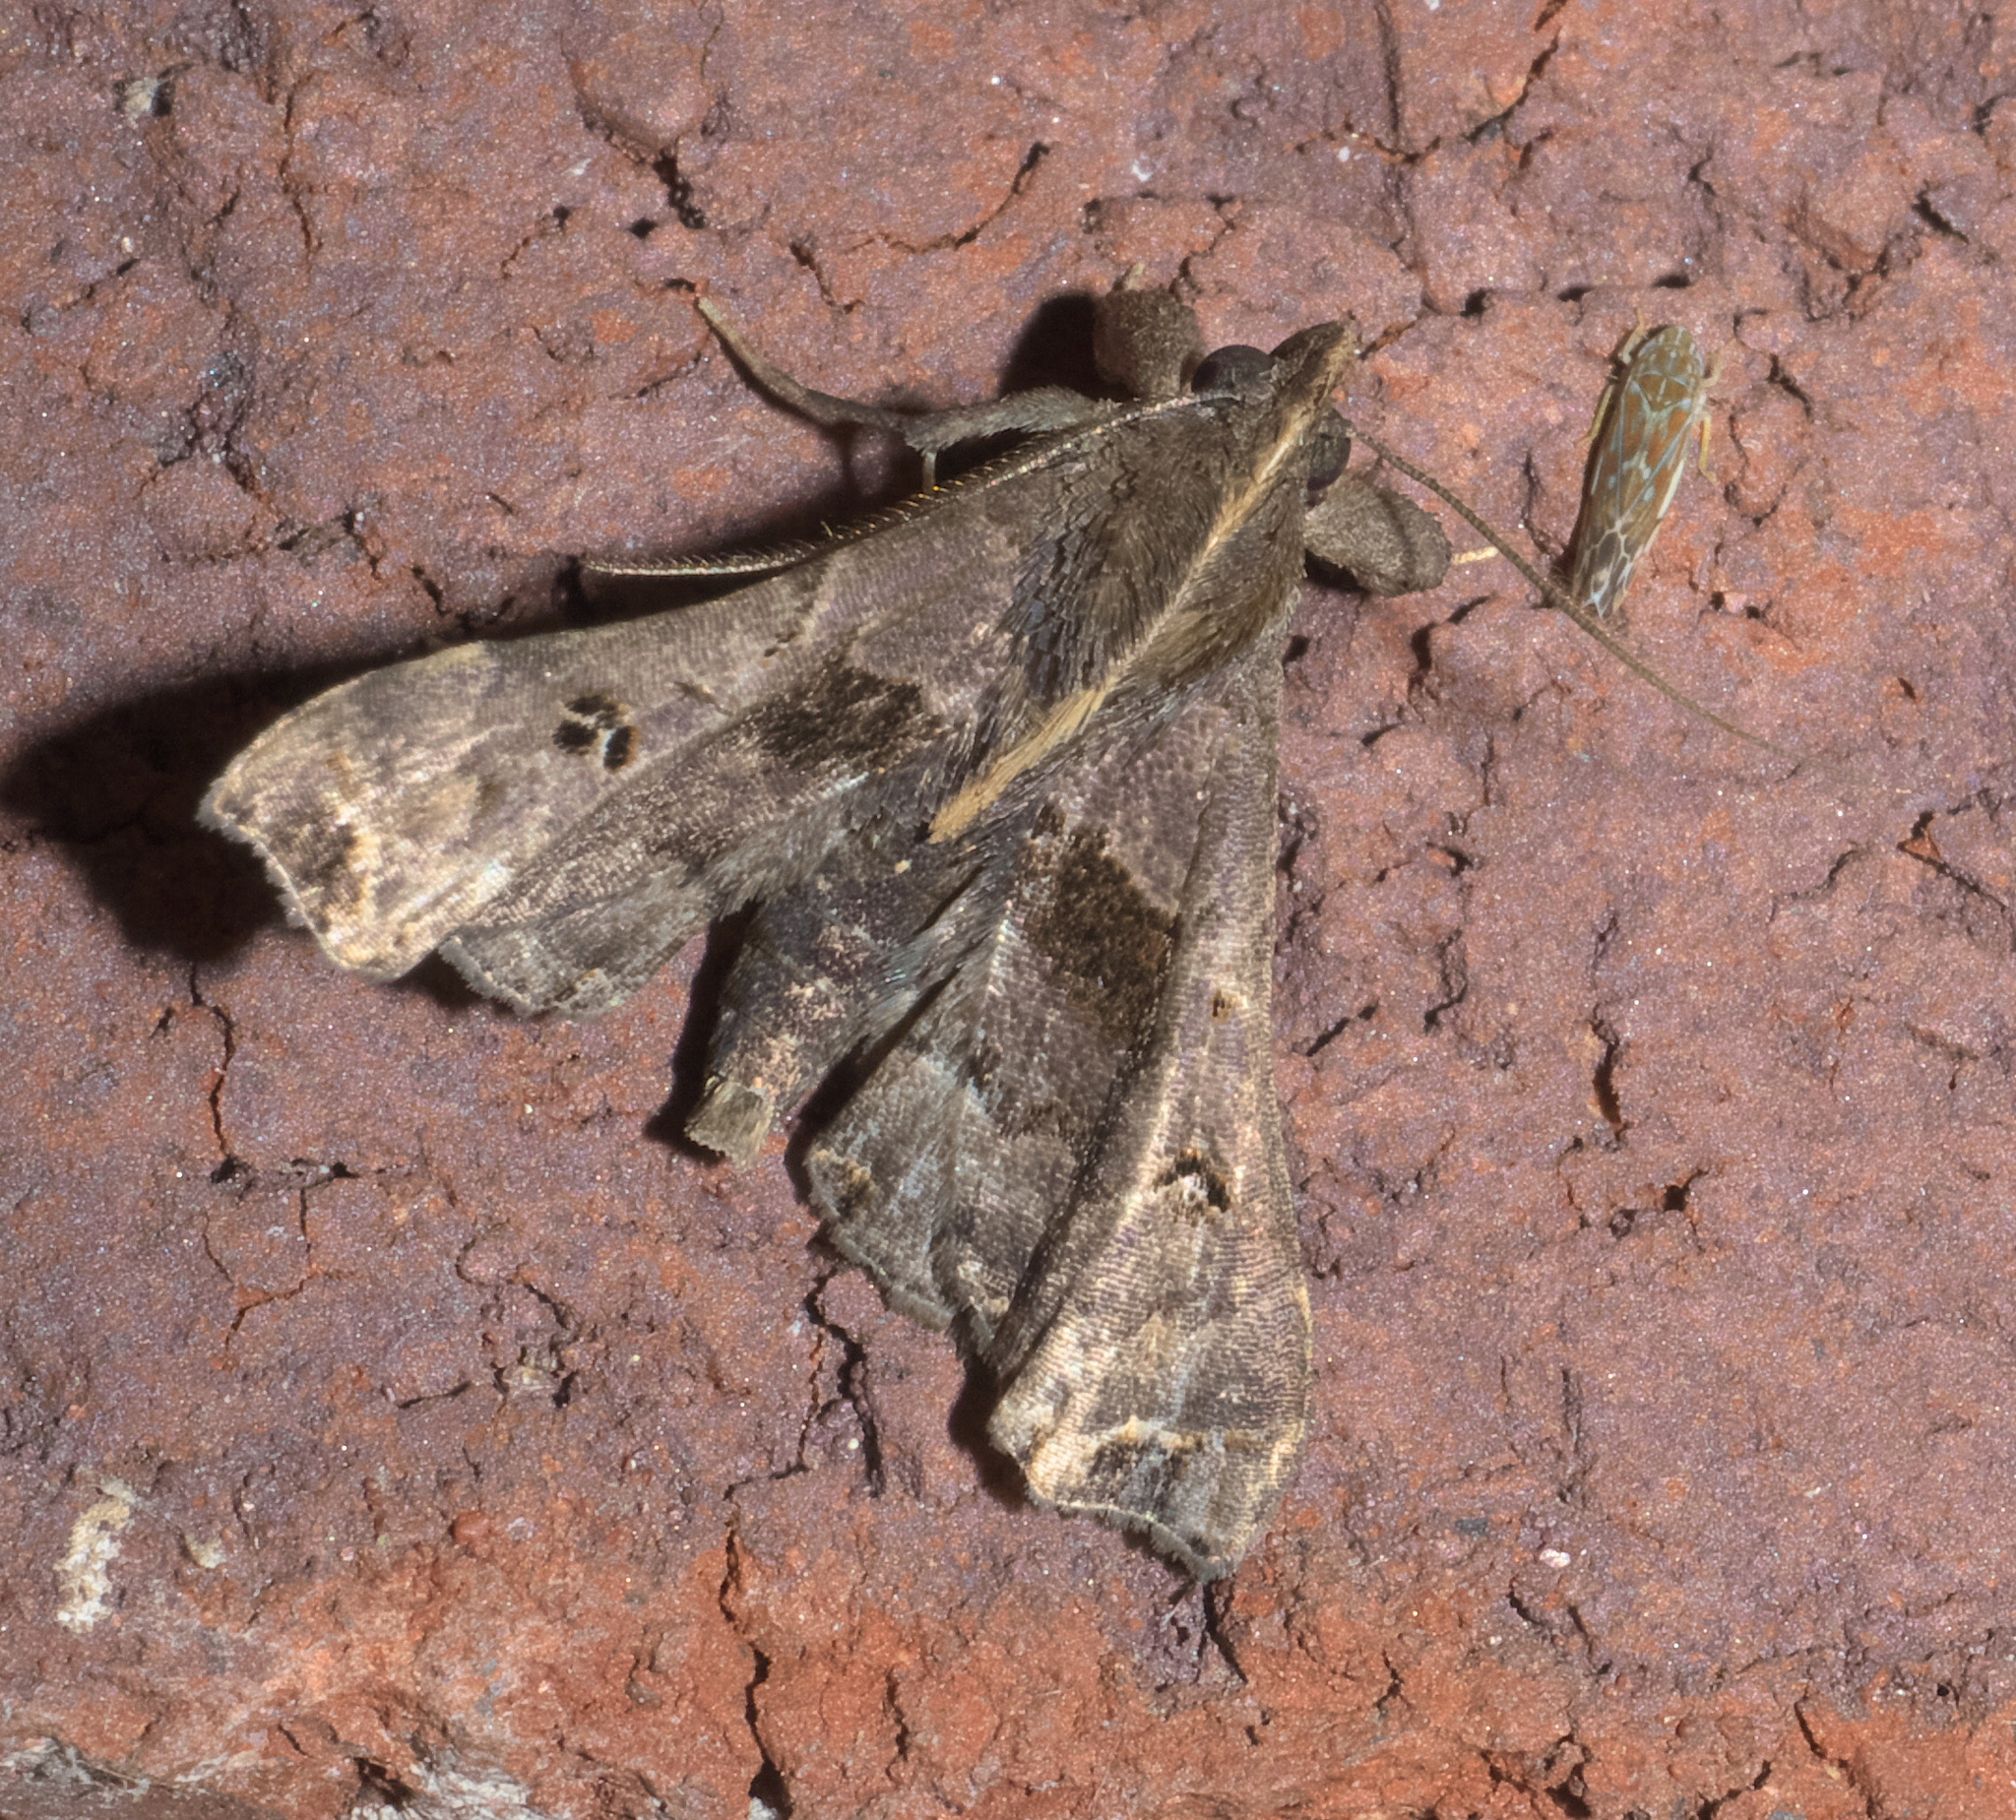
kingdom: Animalia
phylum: Arthropoda
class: Insecta
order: Lepidoptera
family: Erebidae
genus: Palthis
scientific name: Palthis asopialis
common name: Faint-spotted palthis moth
